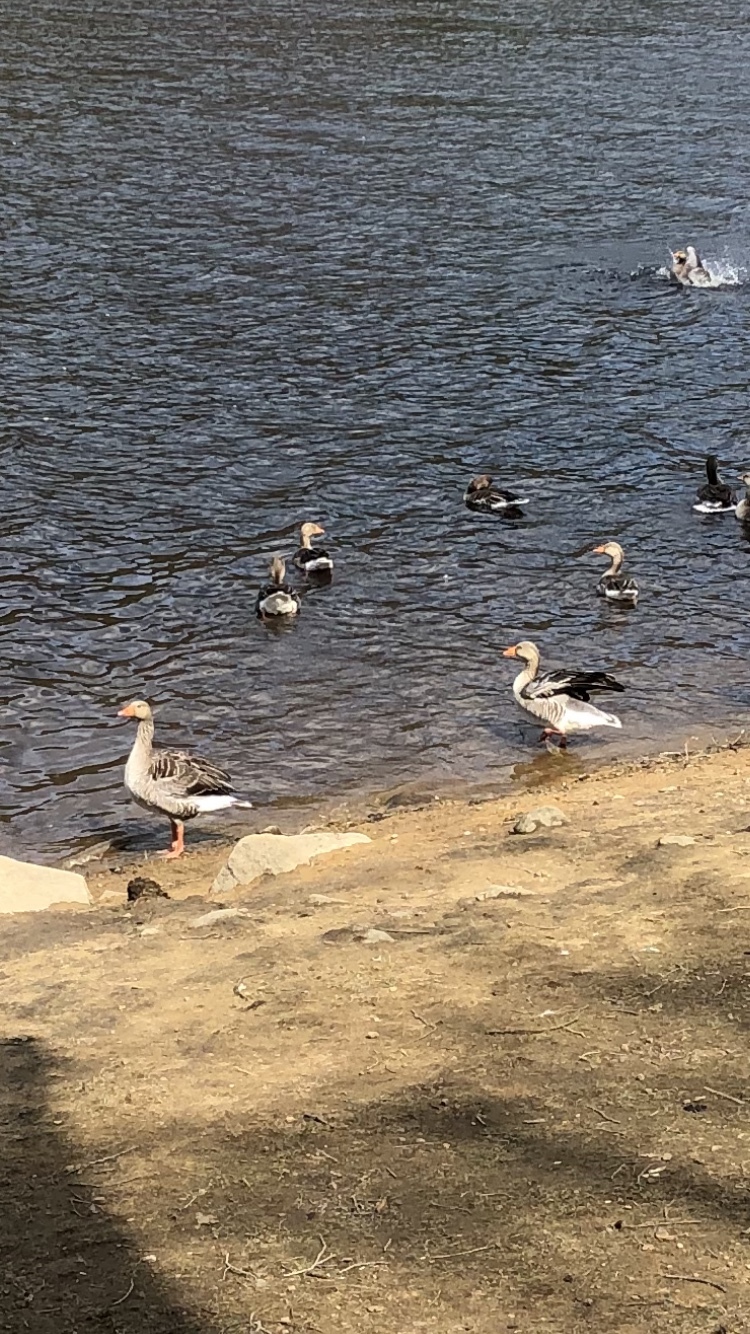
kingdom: Animalia
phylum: Chordata
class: Aves
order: Anseriformes
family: Anatidae
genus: Anser
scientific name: Anser anser
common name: Greylag goose
